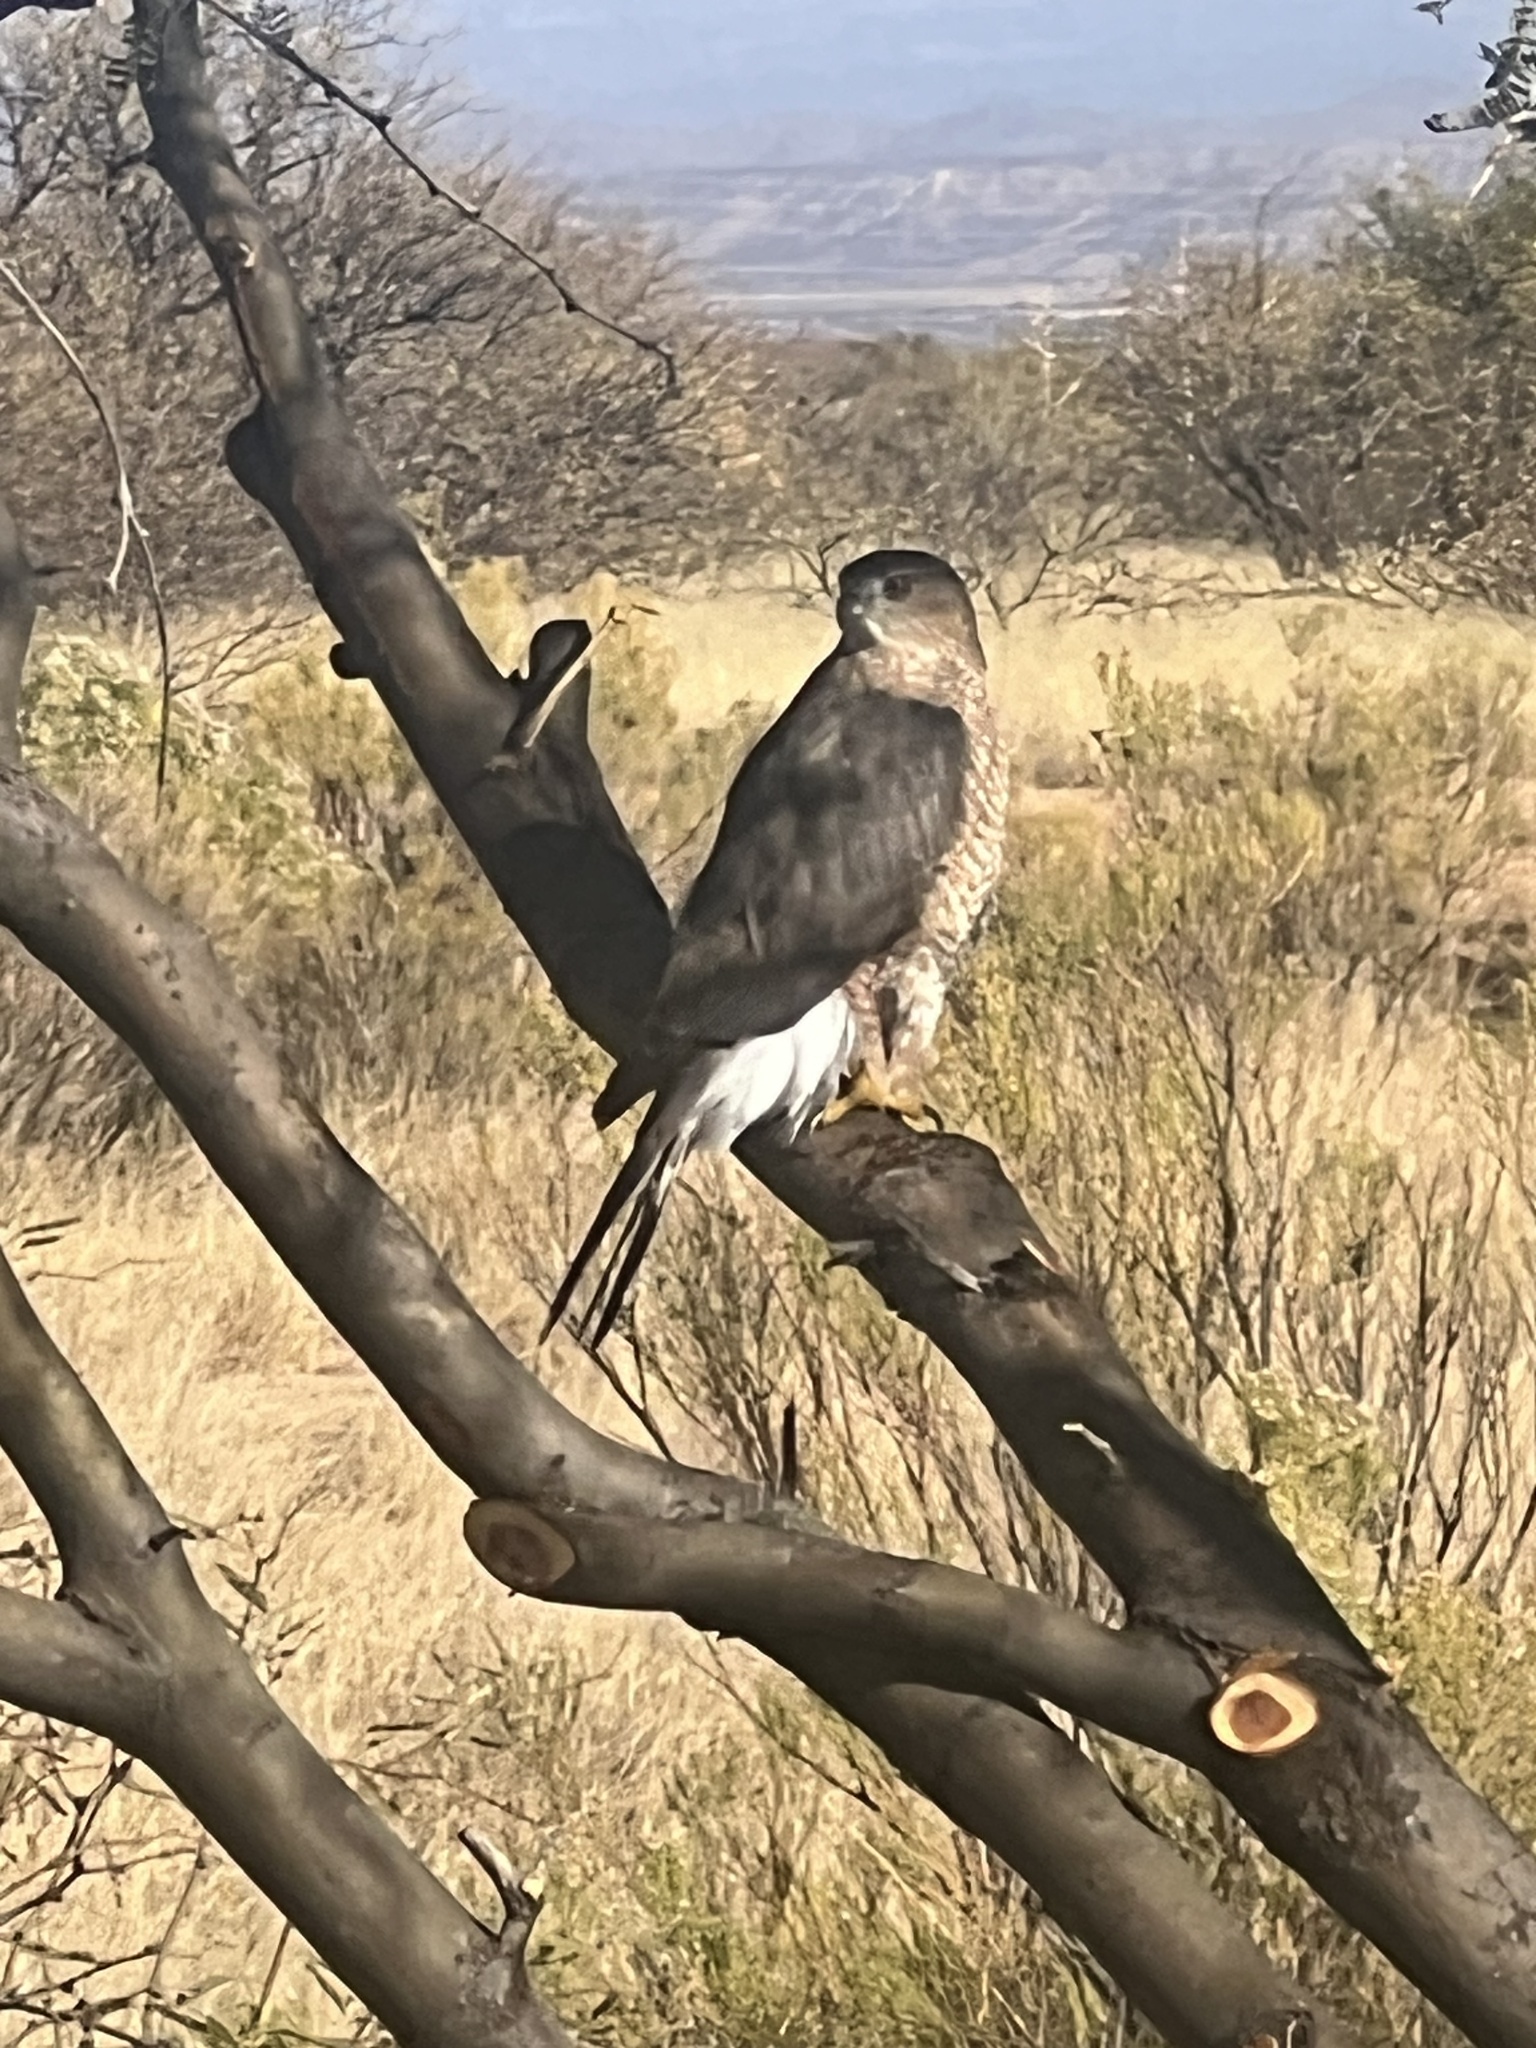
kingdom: Animalia
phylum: Chordata
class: Aves
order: Accipitriformes
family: Accipitridae
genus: Accipiter
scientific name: Accipiter cooperii
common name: Cooper's hawk
